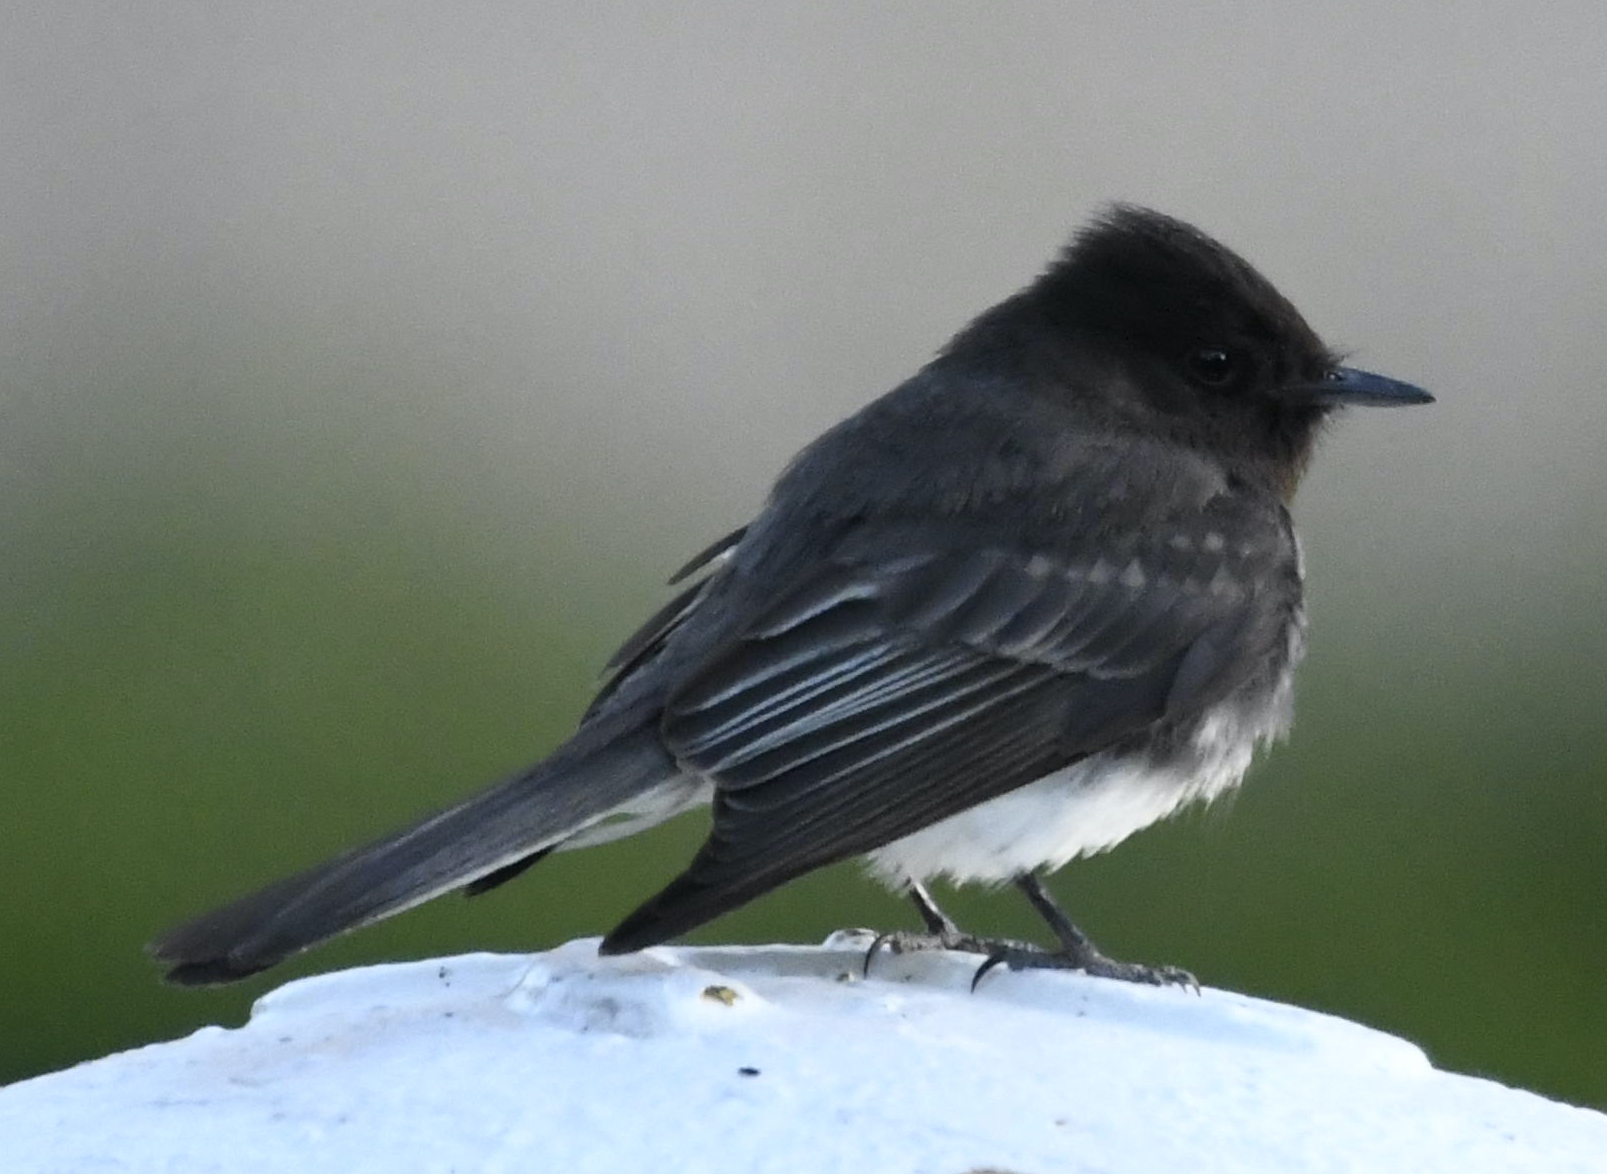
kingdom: Animalia
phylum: Chordata
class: Aves
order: Passeriformes
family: Tyrannidae
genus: Sayornis
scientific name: Sayornis nigricans
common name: Black phoebe
